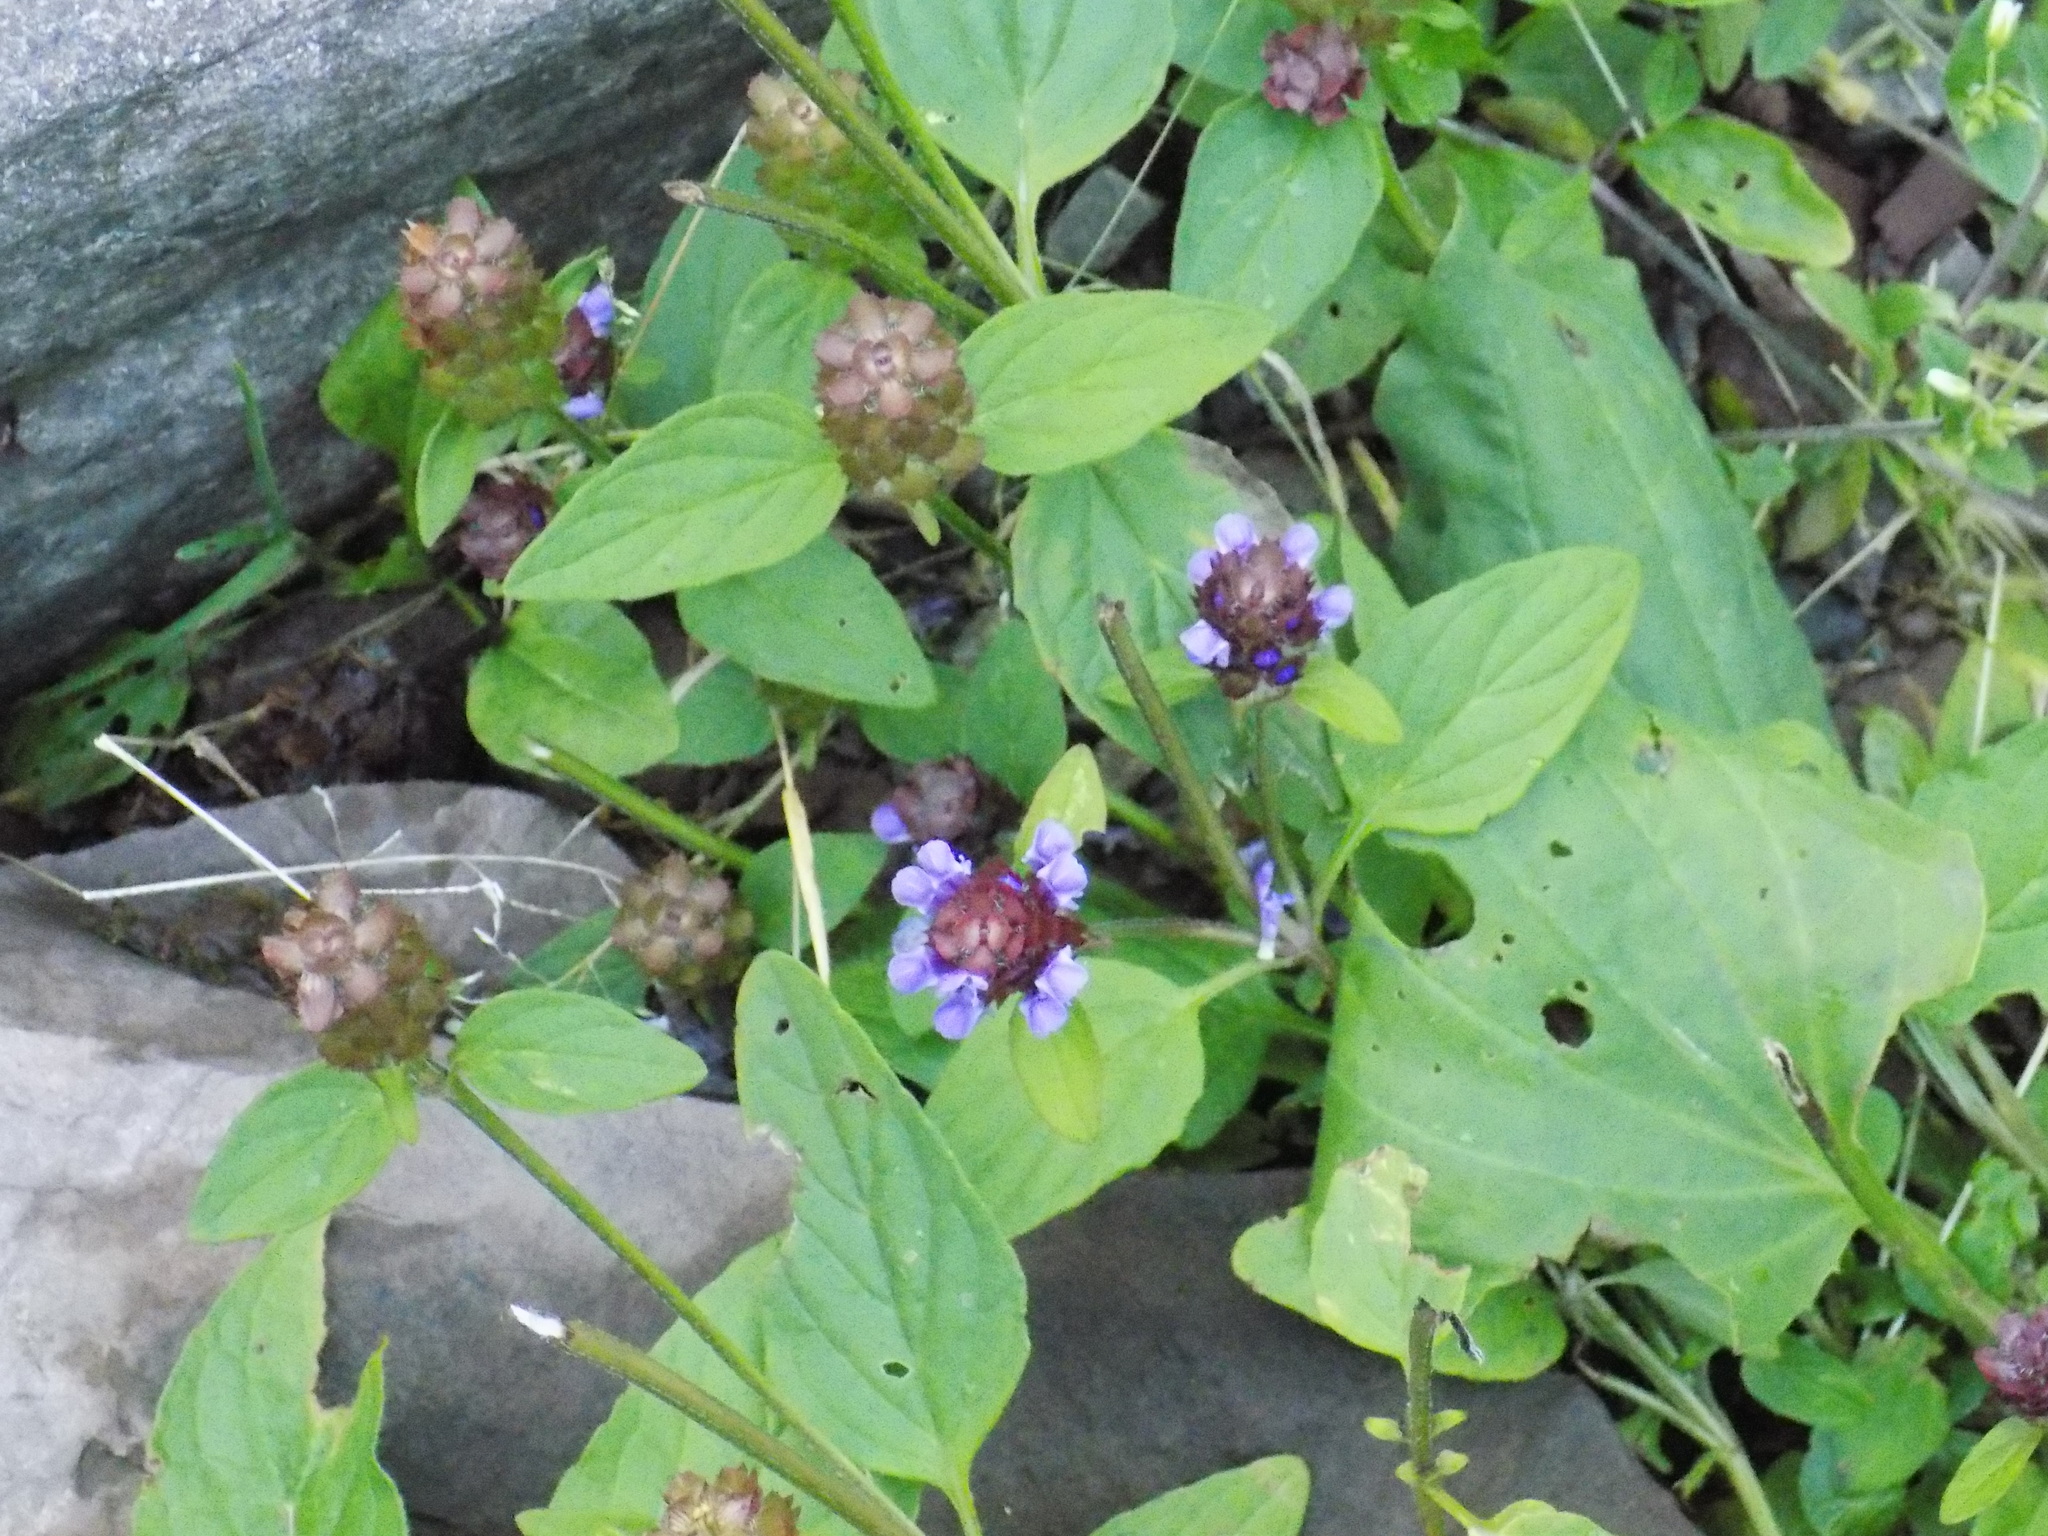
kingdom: Plantae
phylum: Tracheophyta
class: Magnoliopsida
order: Lamiales
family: Lamiaceae
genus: Prunella
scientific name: Prunella vulgaris
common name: Heal-all
